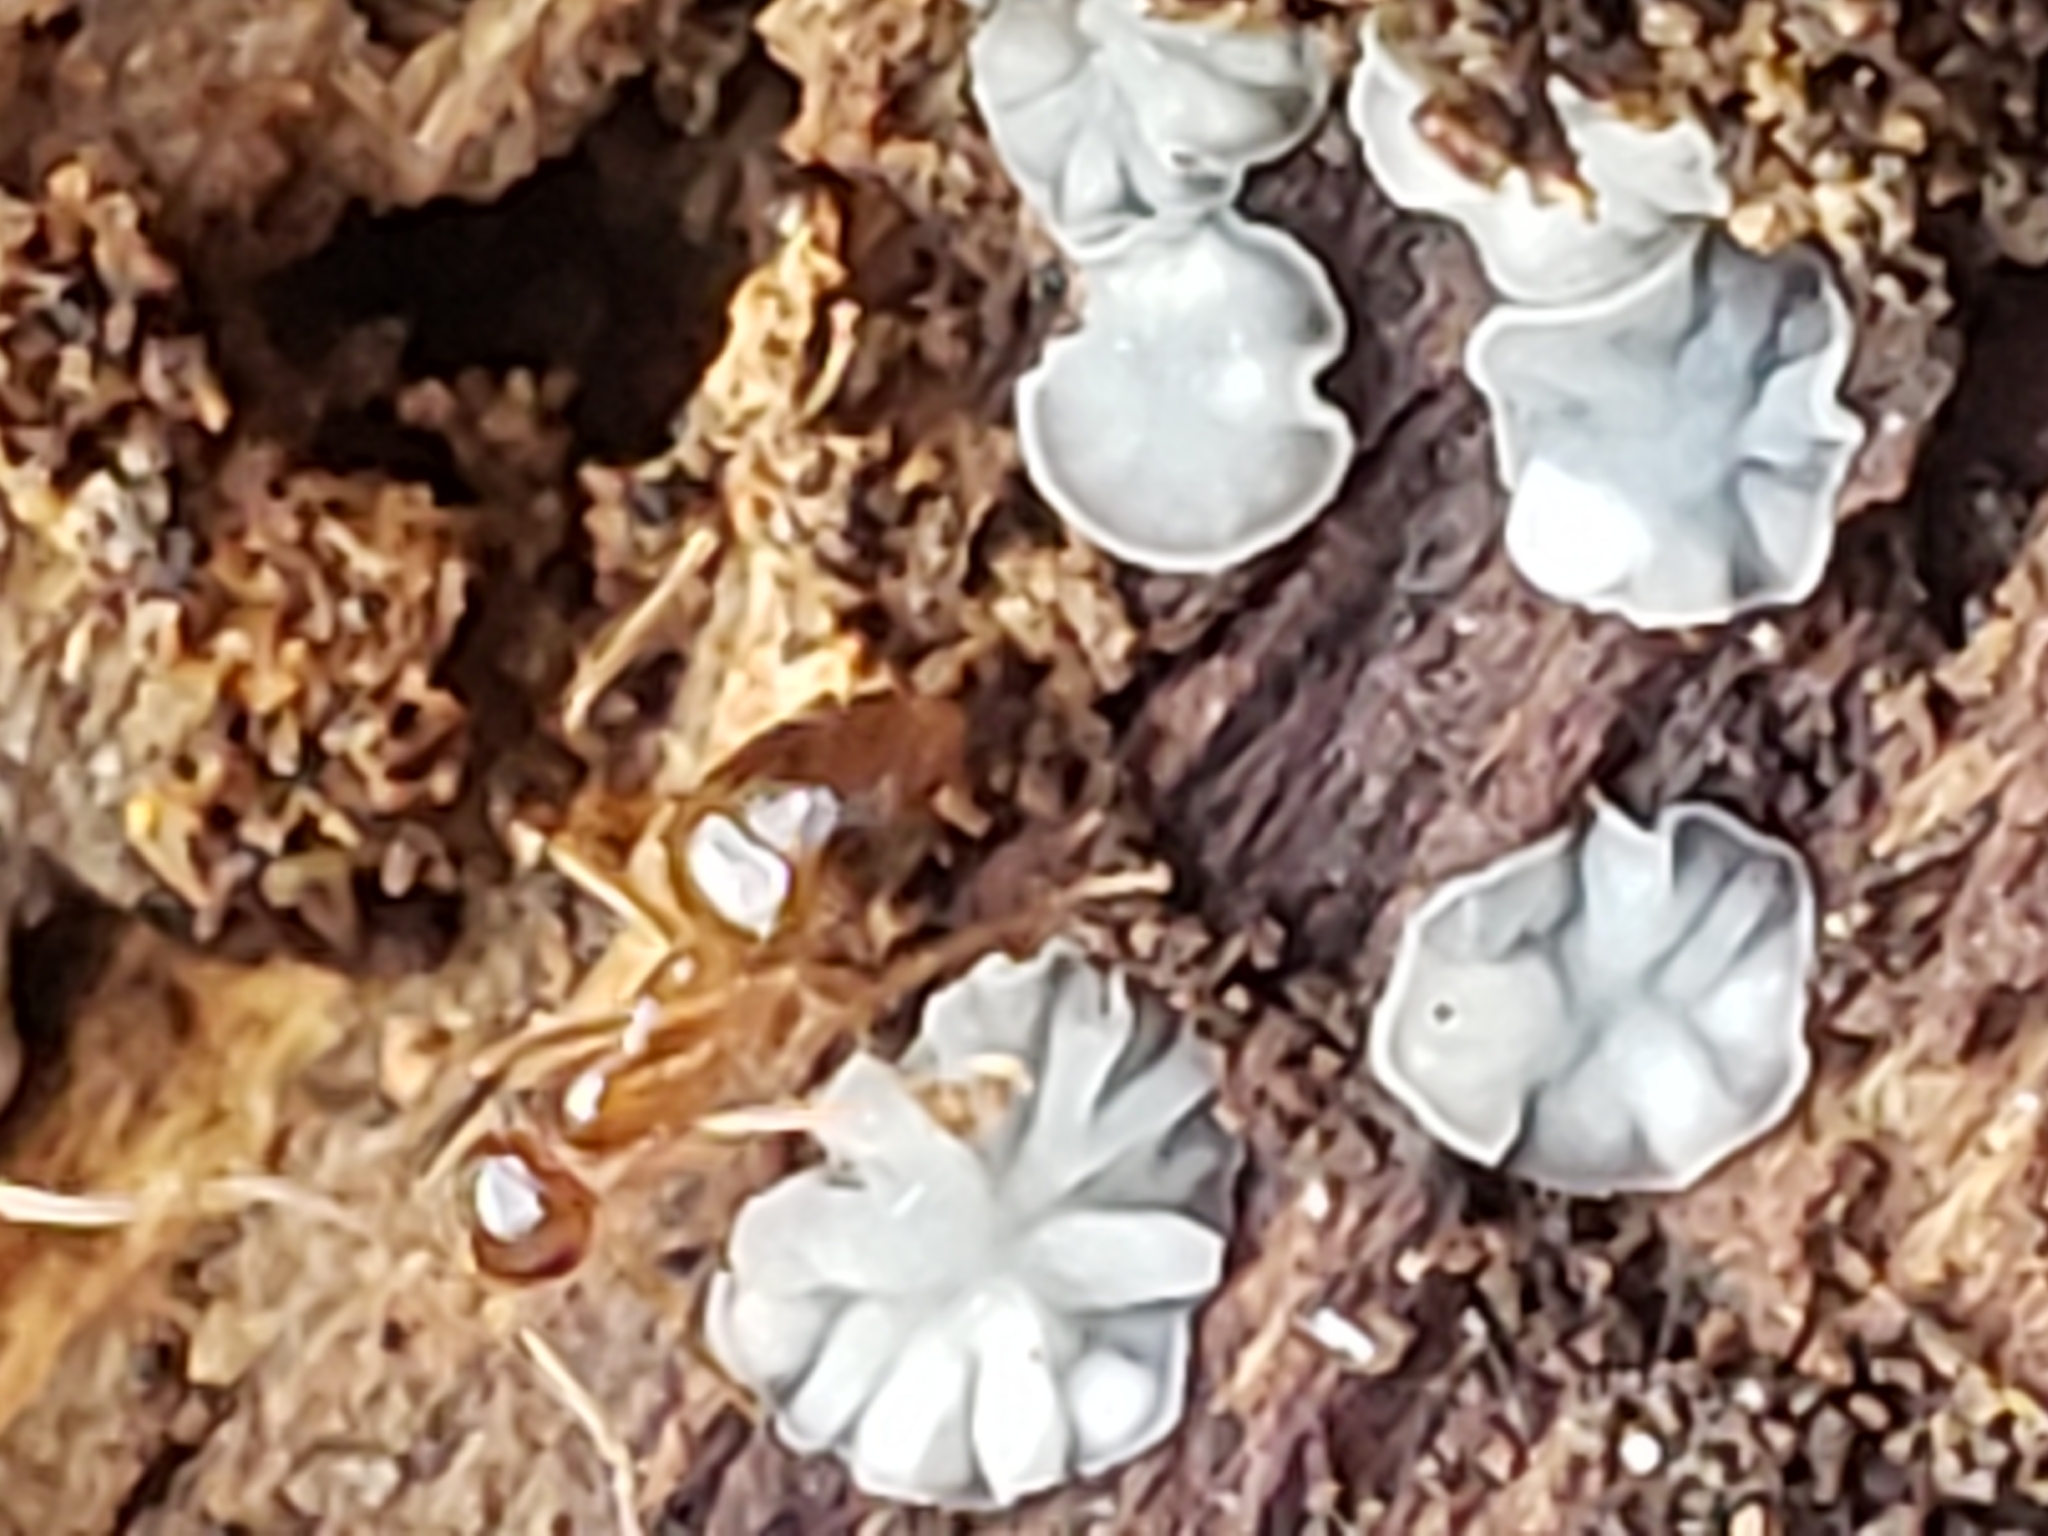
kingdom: Animalia
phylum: Arthropoda
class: Insecta
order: Hymenoptera
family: Formicidae
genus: Prenolepis
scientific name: Prenolepis imparis
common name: Small honey ant
